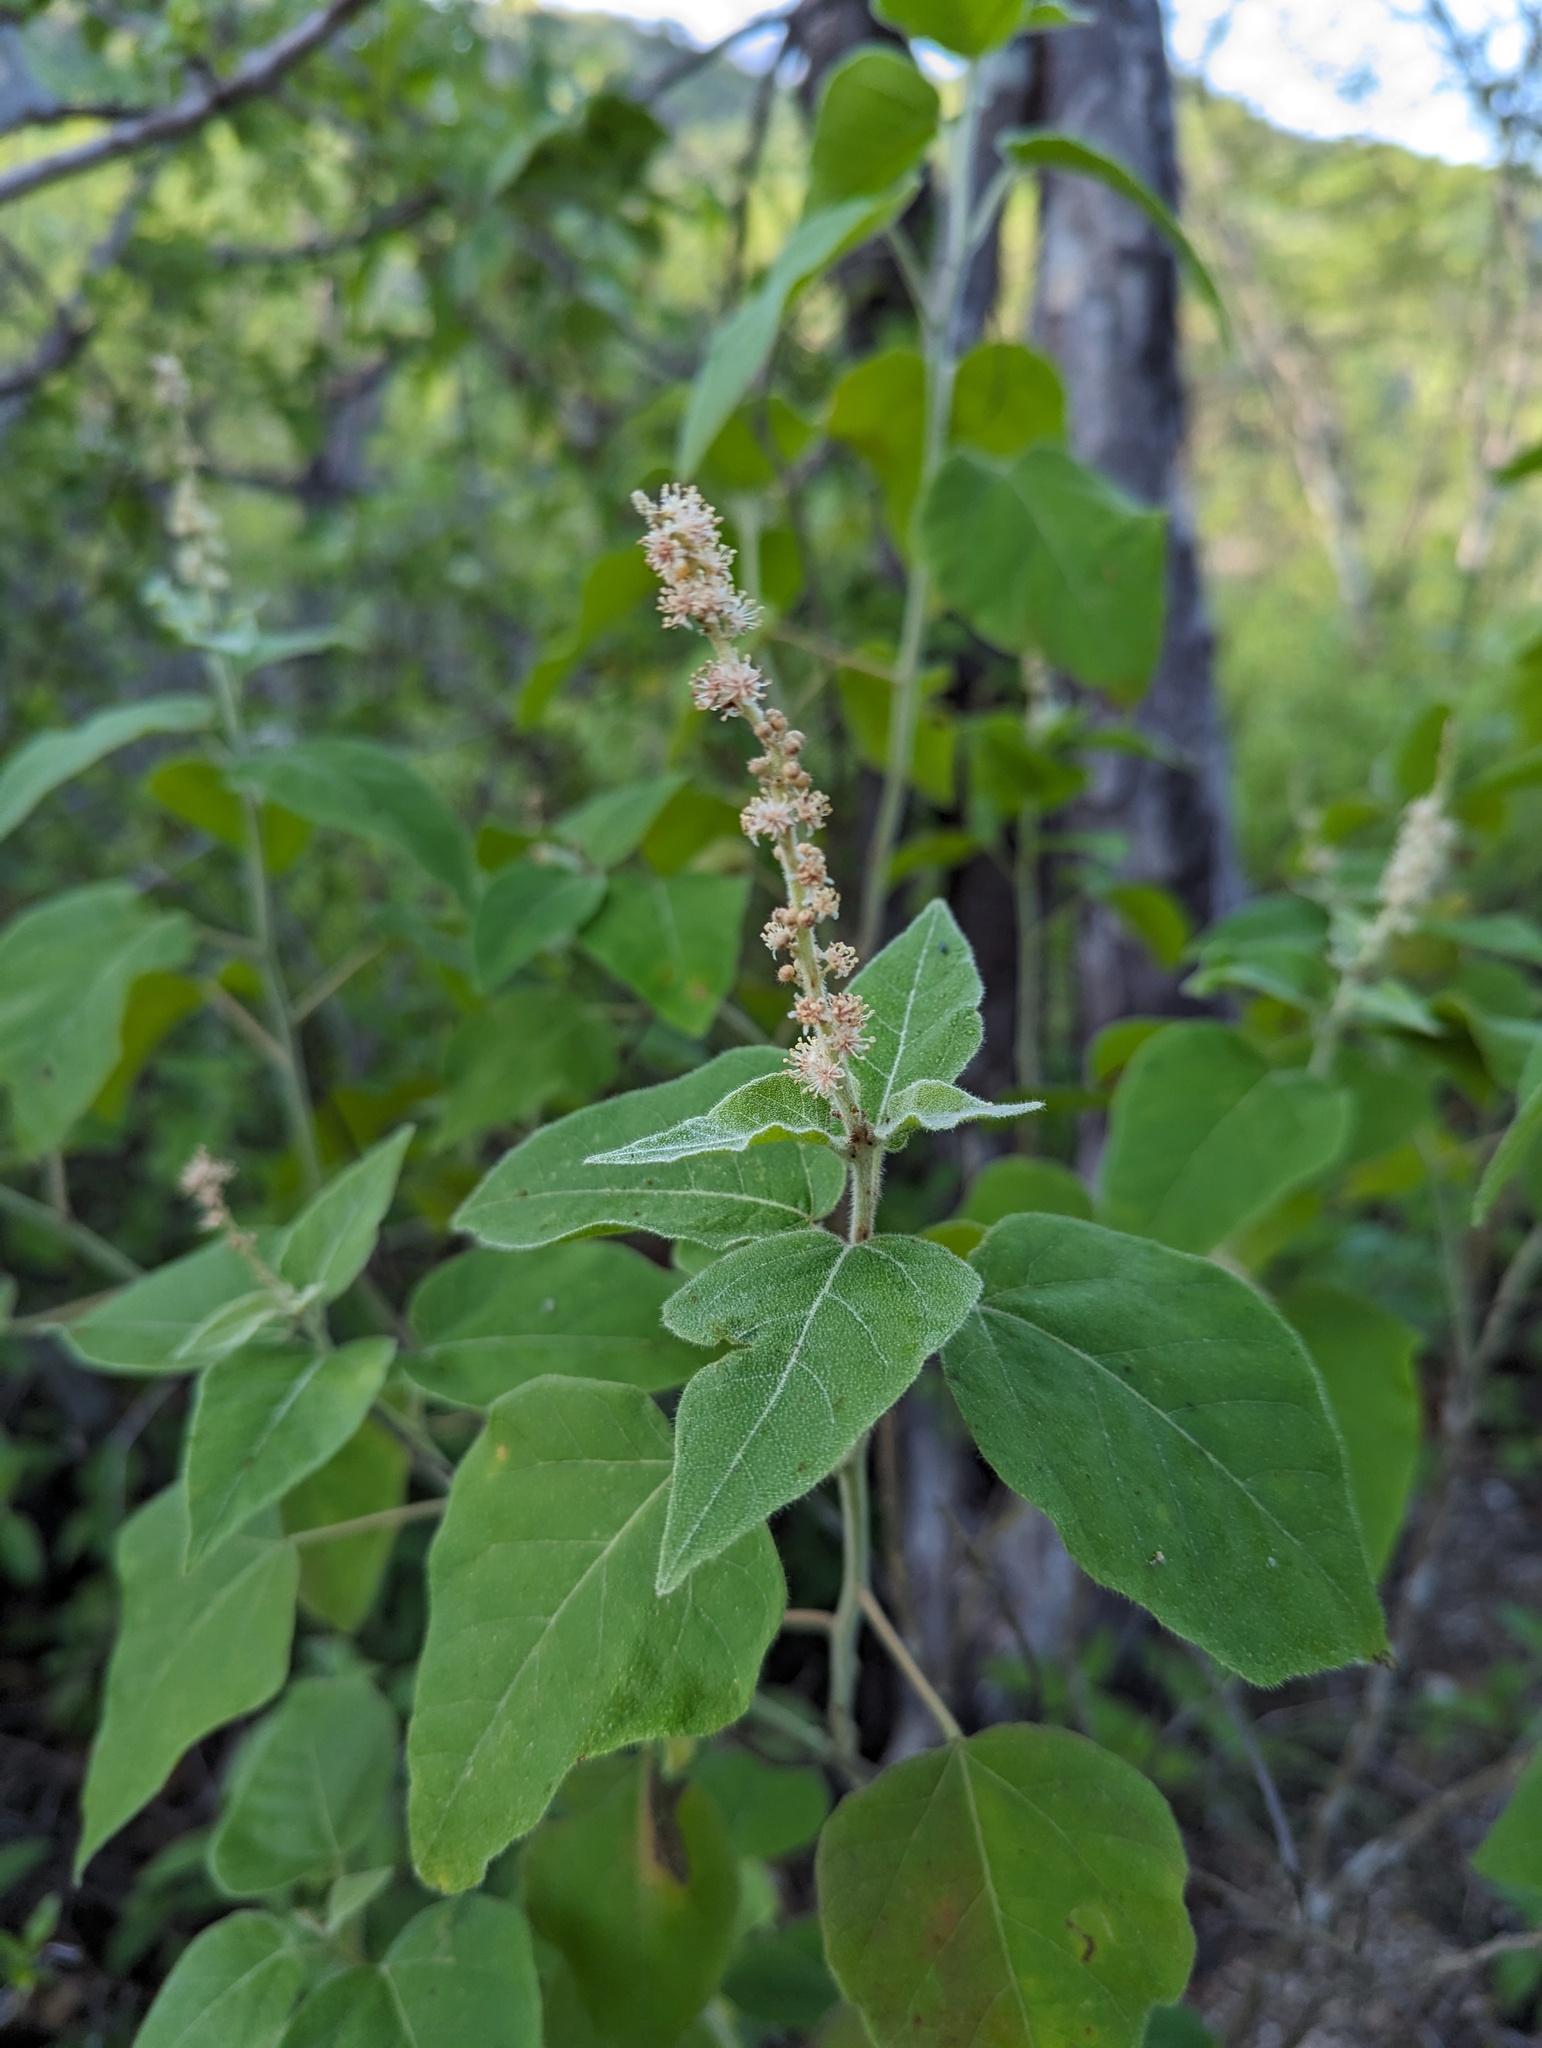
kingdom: Plantae
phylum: Tracheophyta
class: Magnoliopsida
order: Malpighiales
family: Euphorbiaceae
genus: Croton
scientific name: Croton magdalenae
